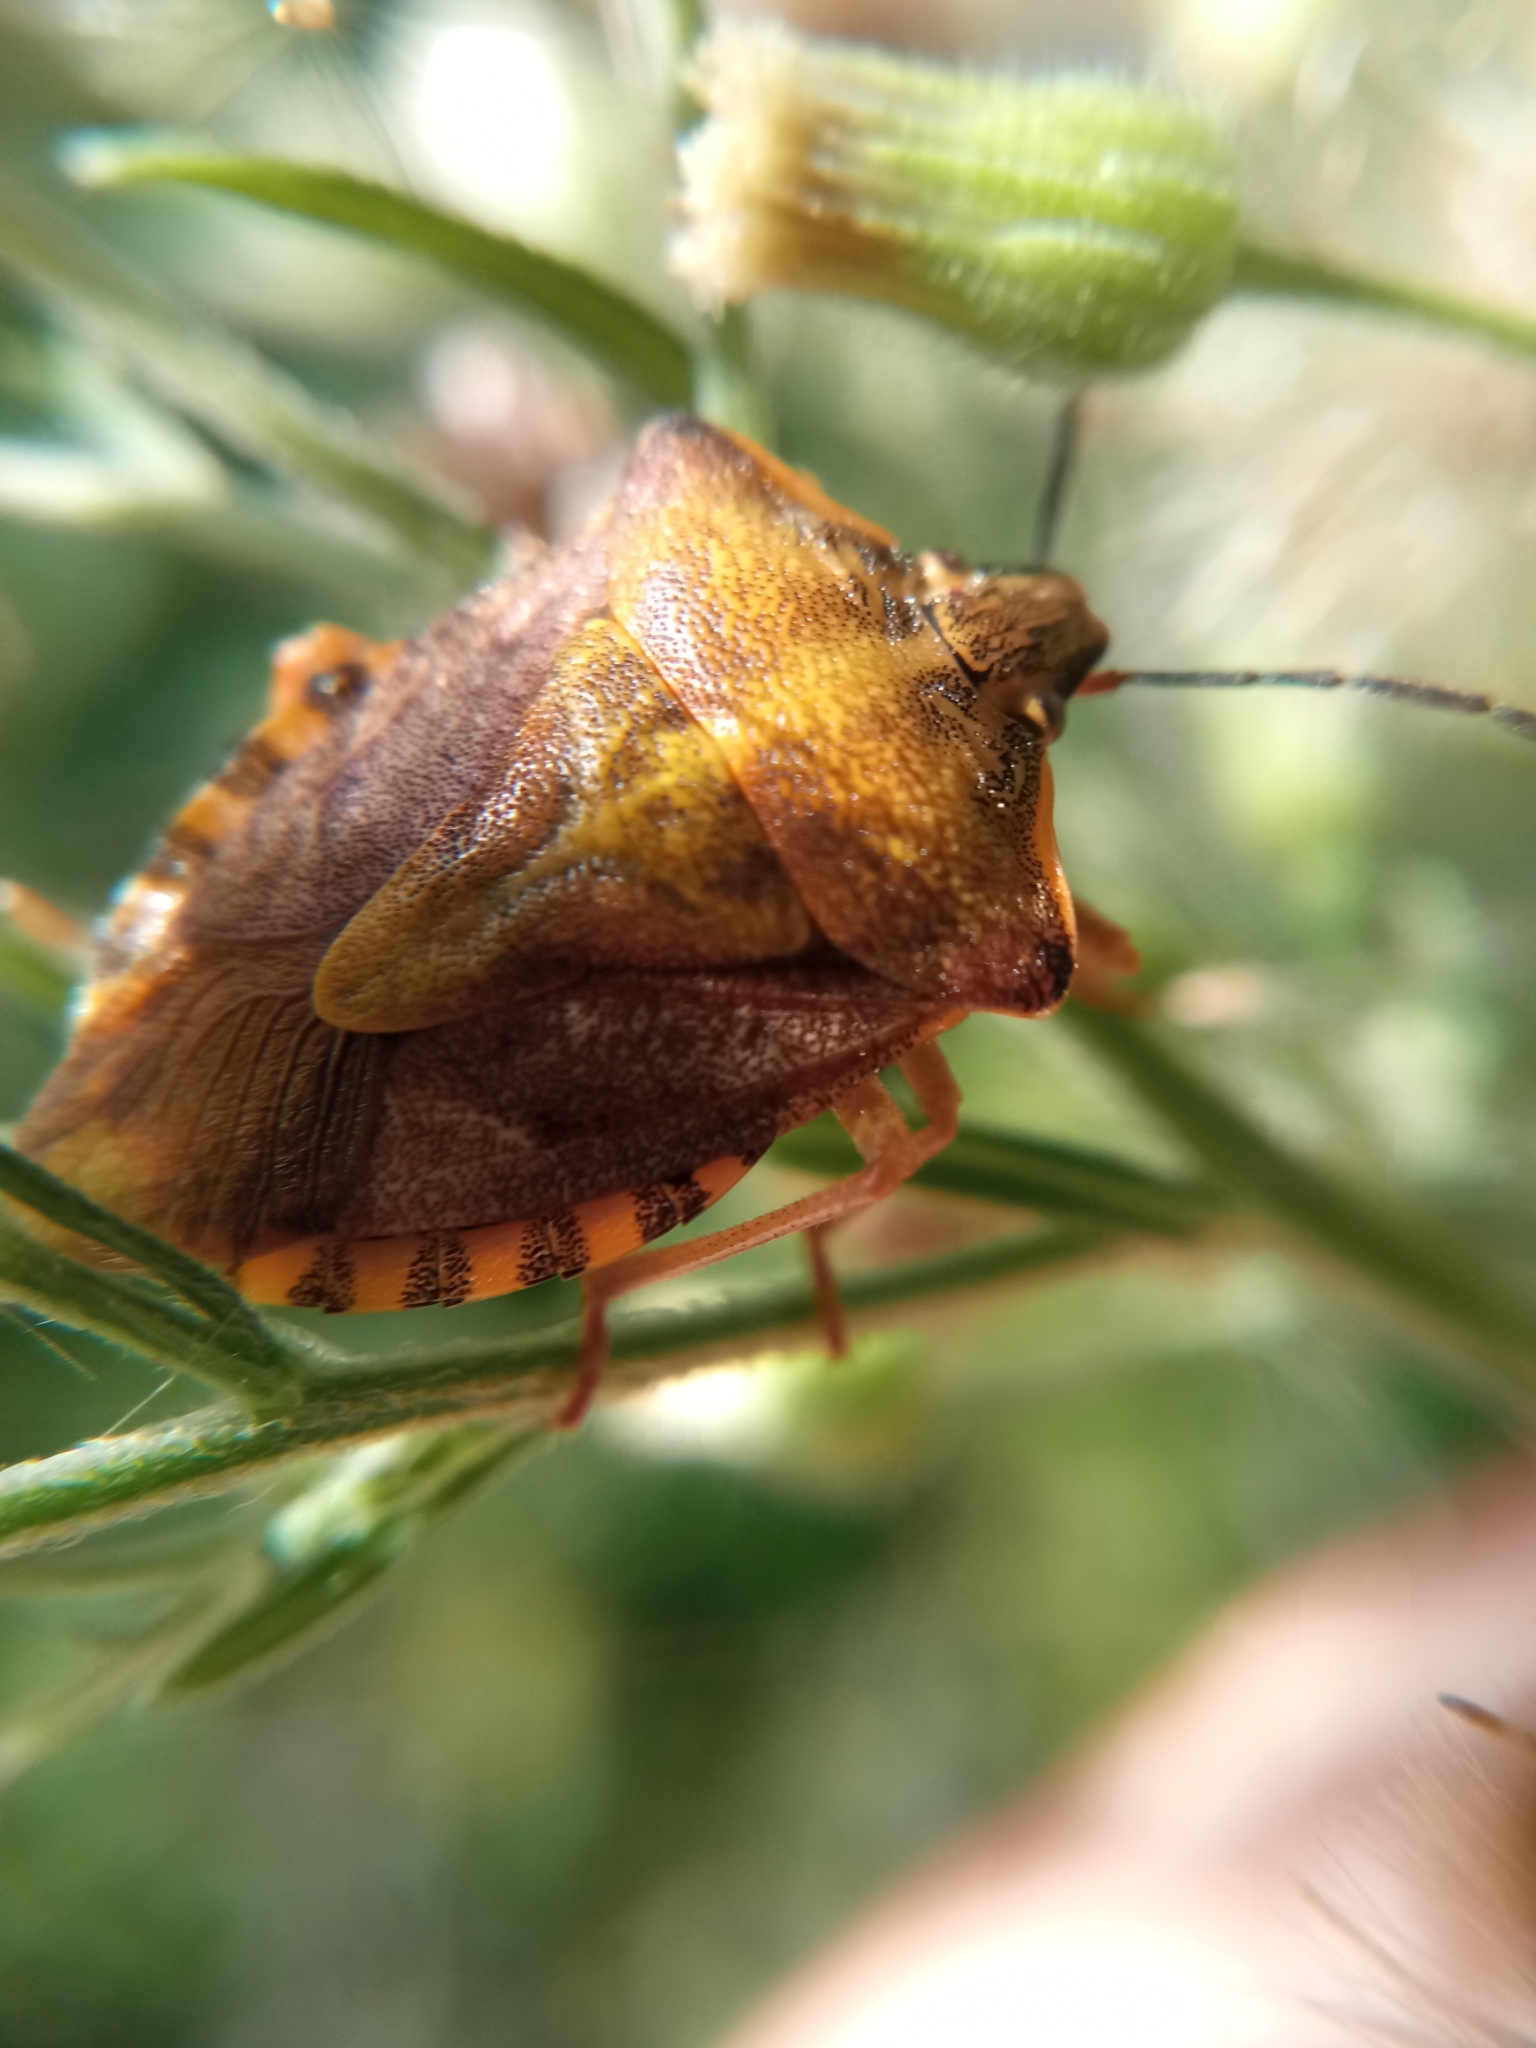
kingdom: Animalia
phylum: Arthropoda
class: Insecta
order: Hemiptera
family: Pentatomidae
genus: Carpocoris
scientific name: Carpocoris purpureipennis
